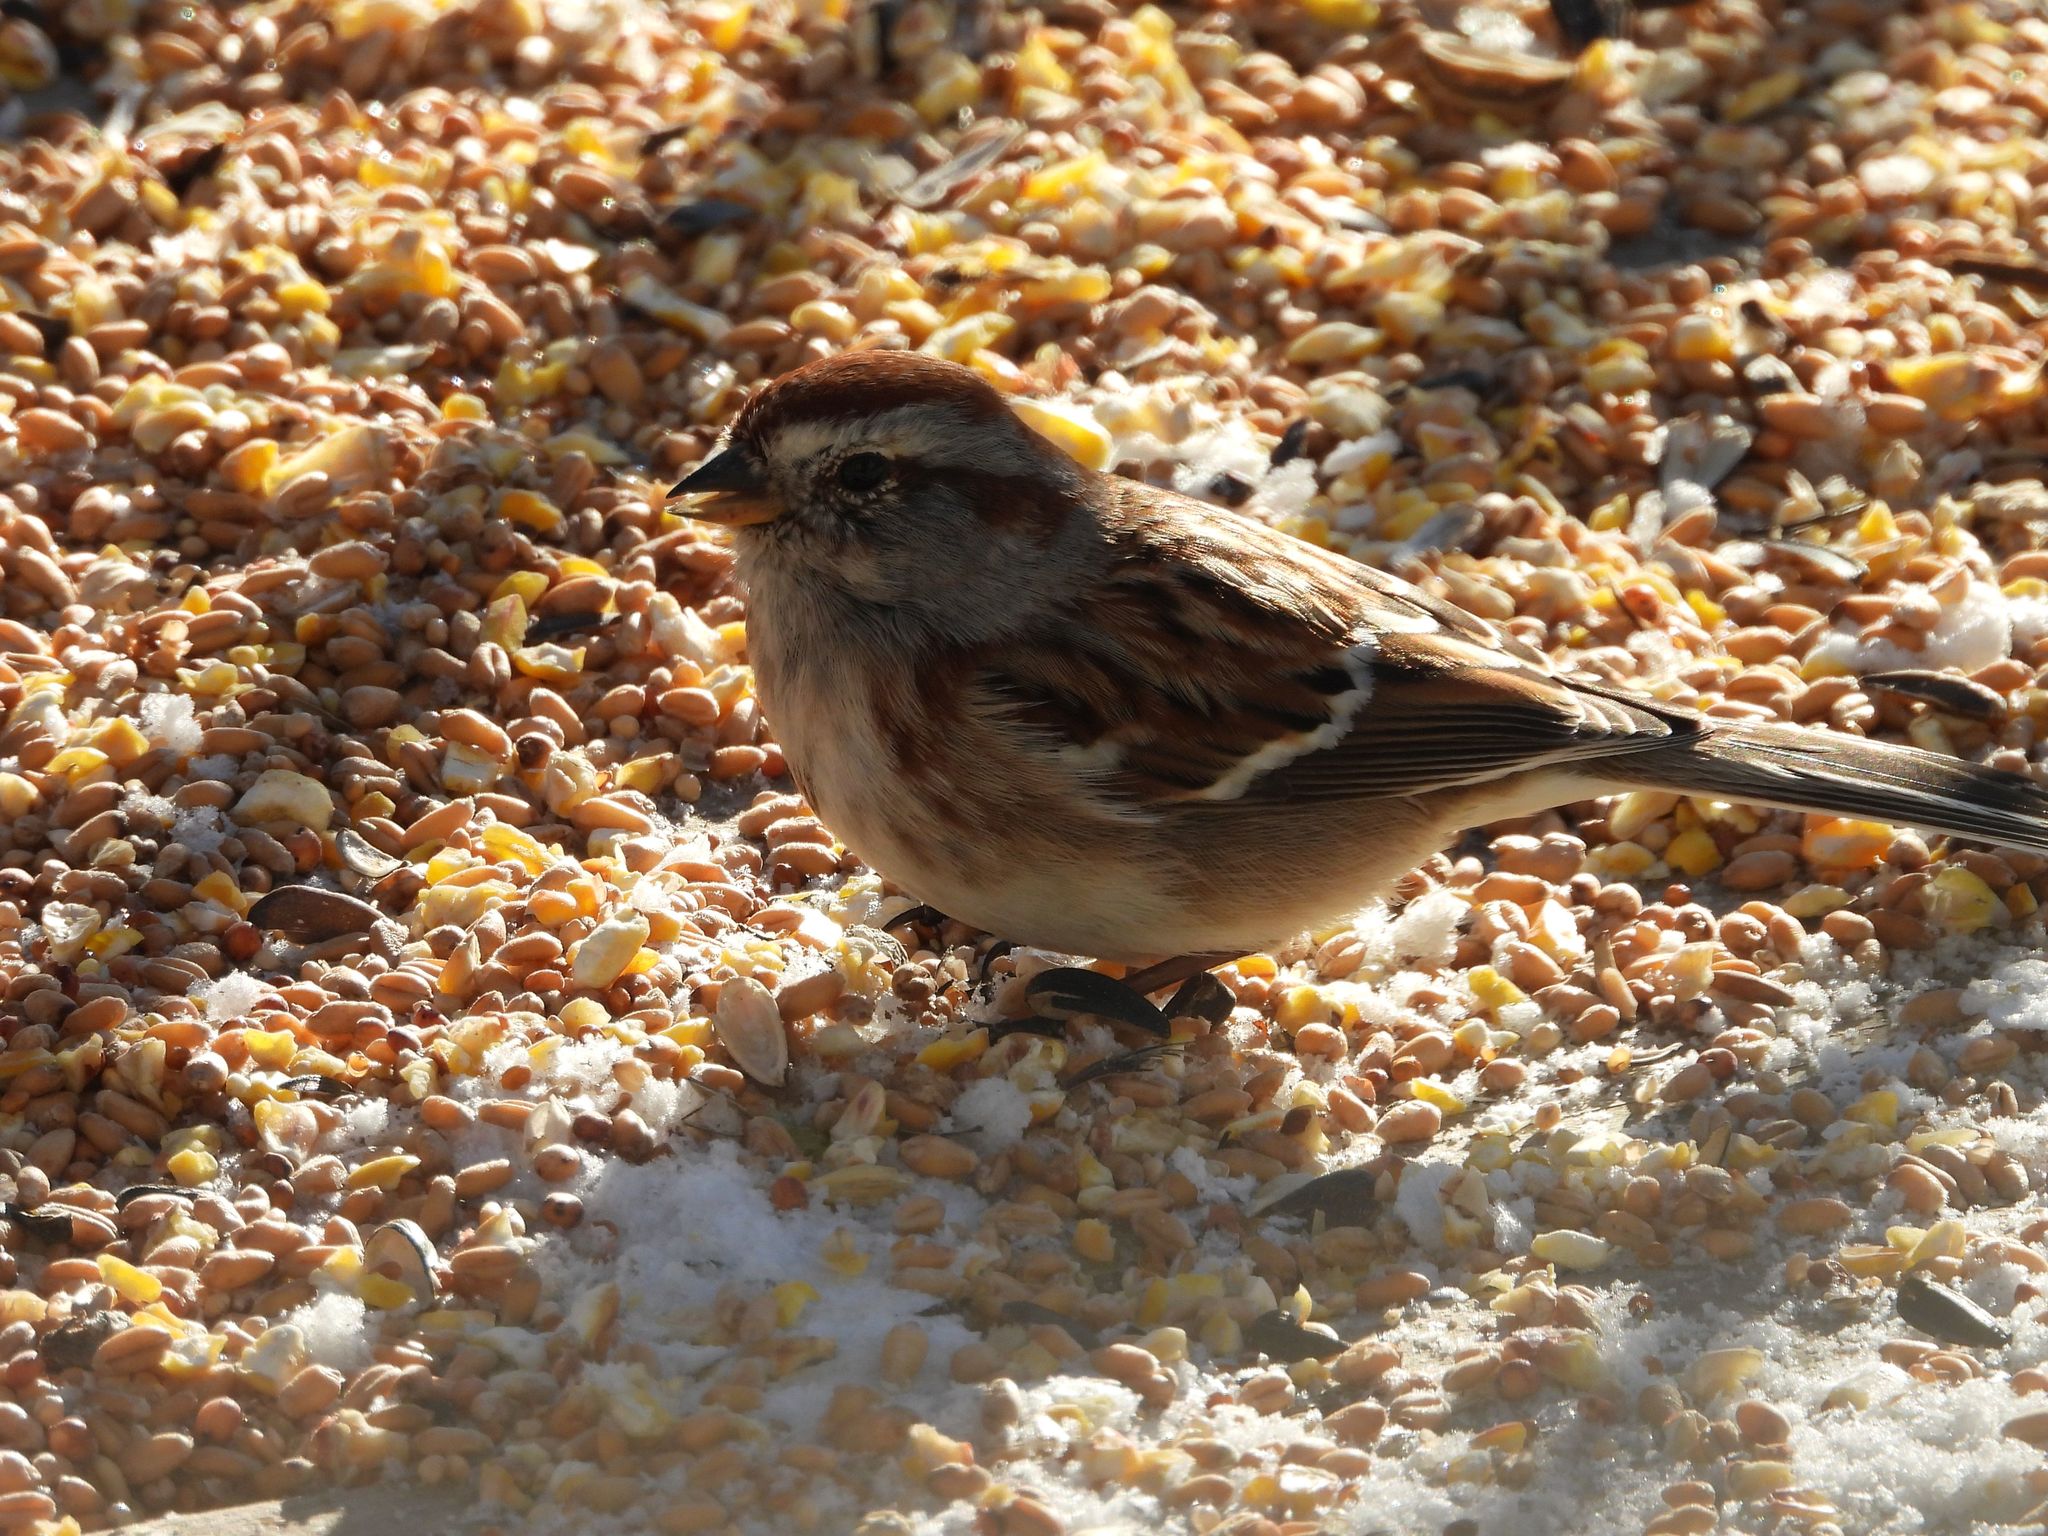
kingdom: Animalia
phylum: Chordata
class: Aves
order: Passeriformes
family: Passerellidae
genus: Spizelloides
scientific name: Spizelloides arborea
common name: American tree sparrow
